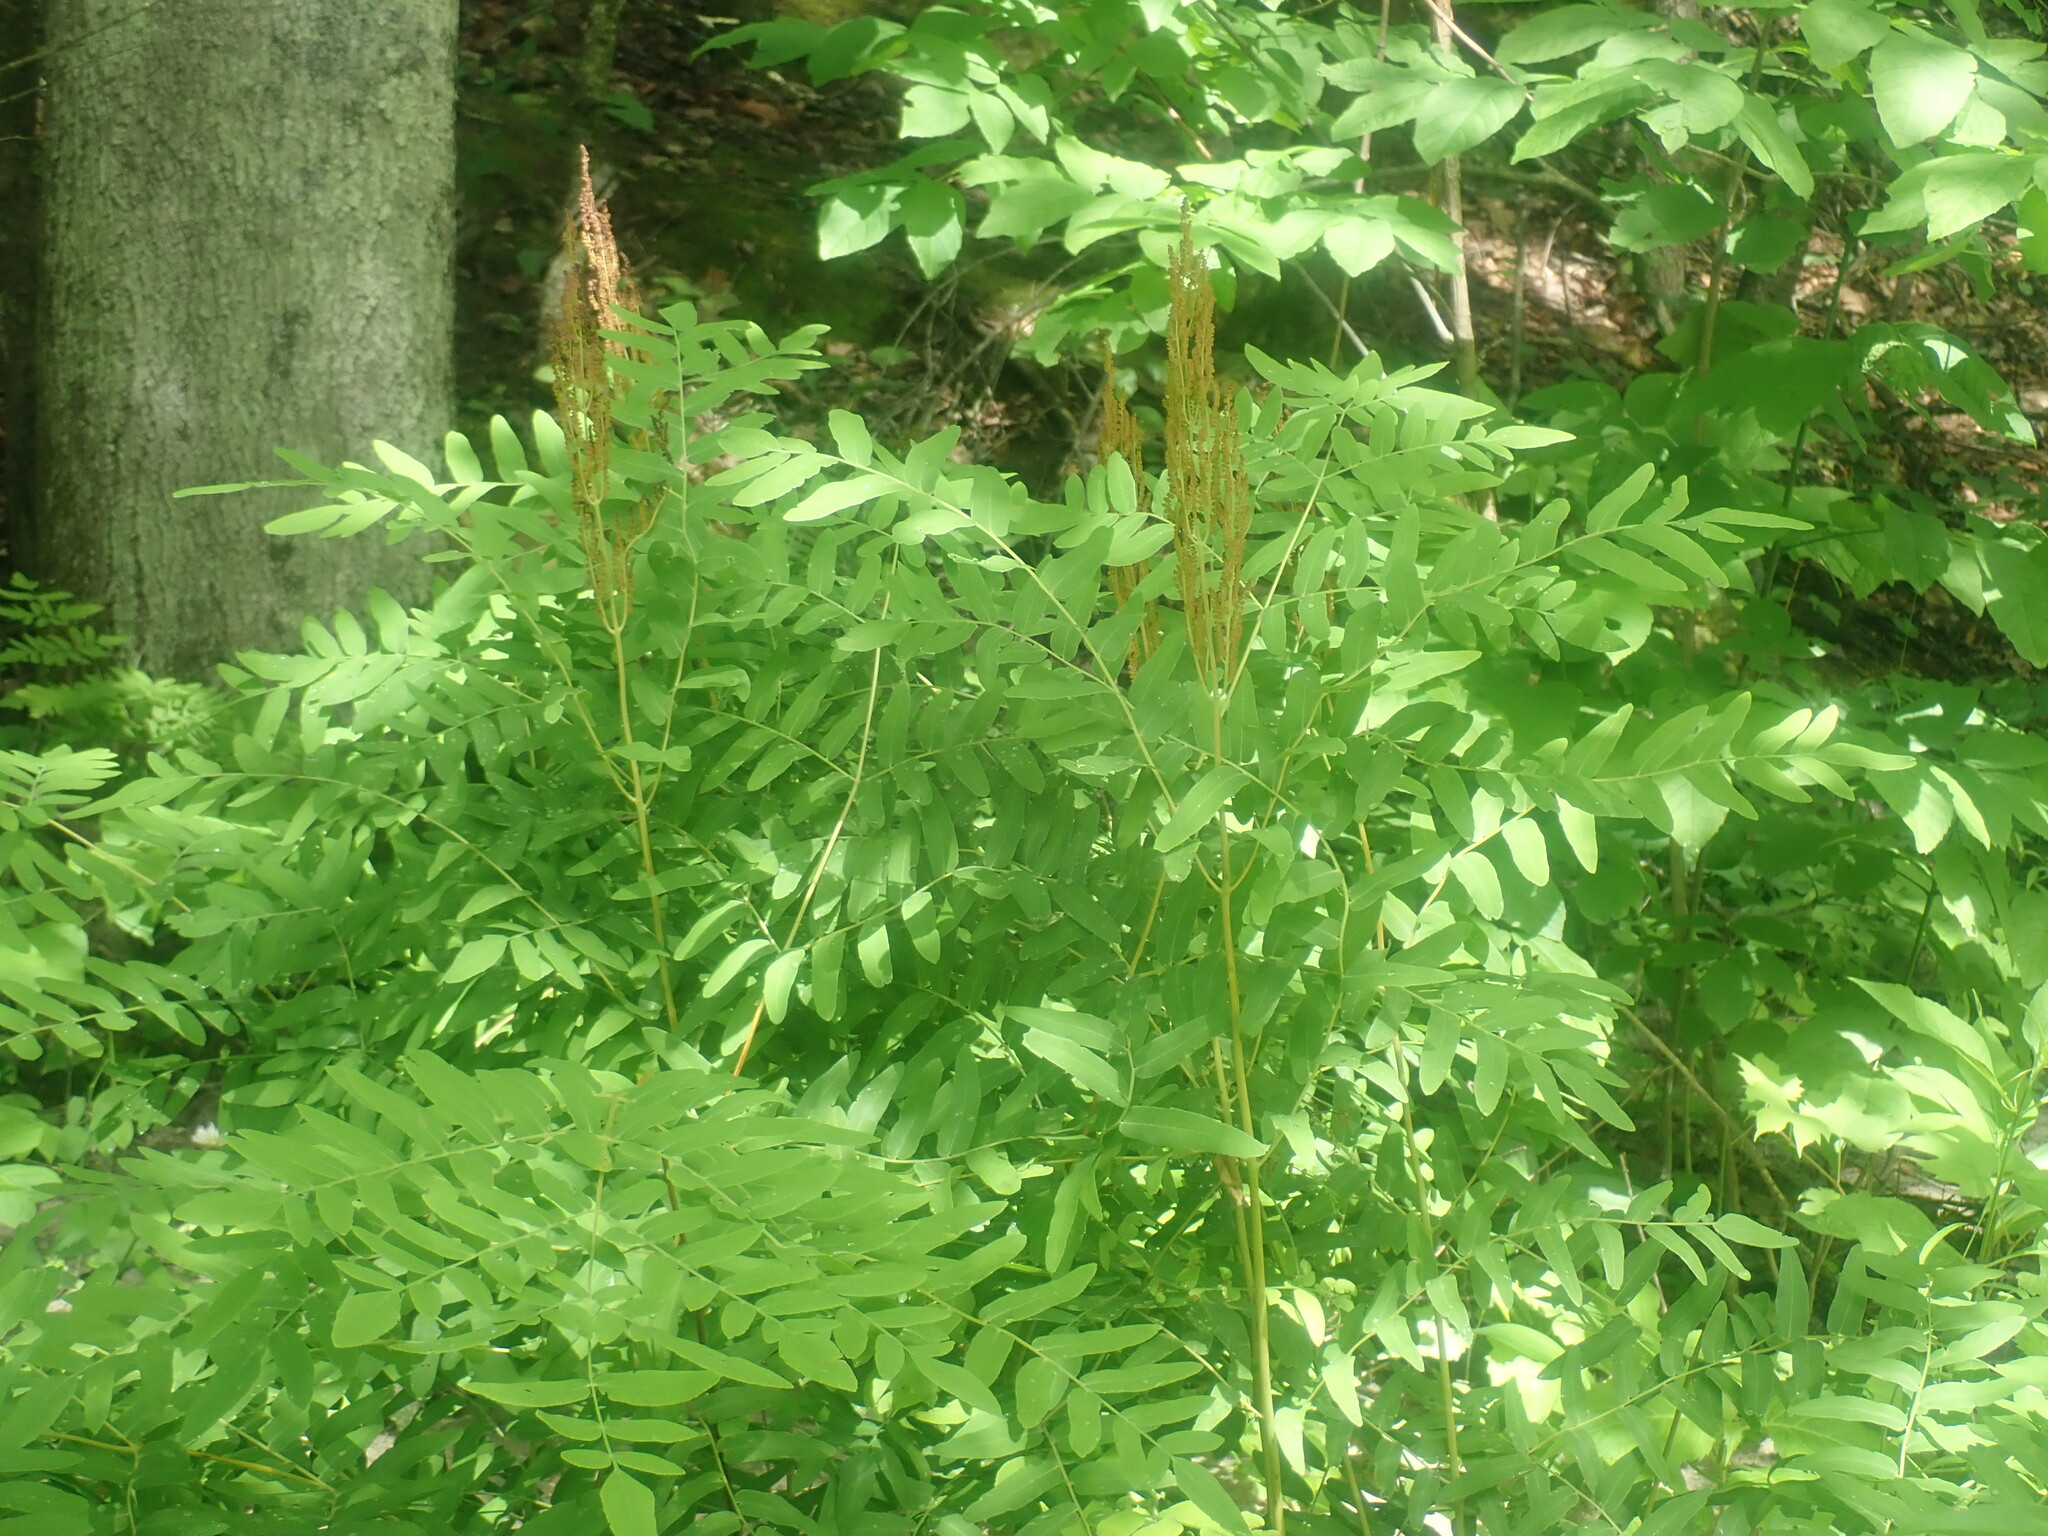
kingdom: Plantae
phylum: Tracheophyta
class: Polypodiopsida
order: Osmundales
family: Osmundaceae
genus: Osmunda
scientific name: Osmunda spectabilis
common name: American royal fern
